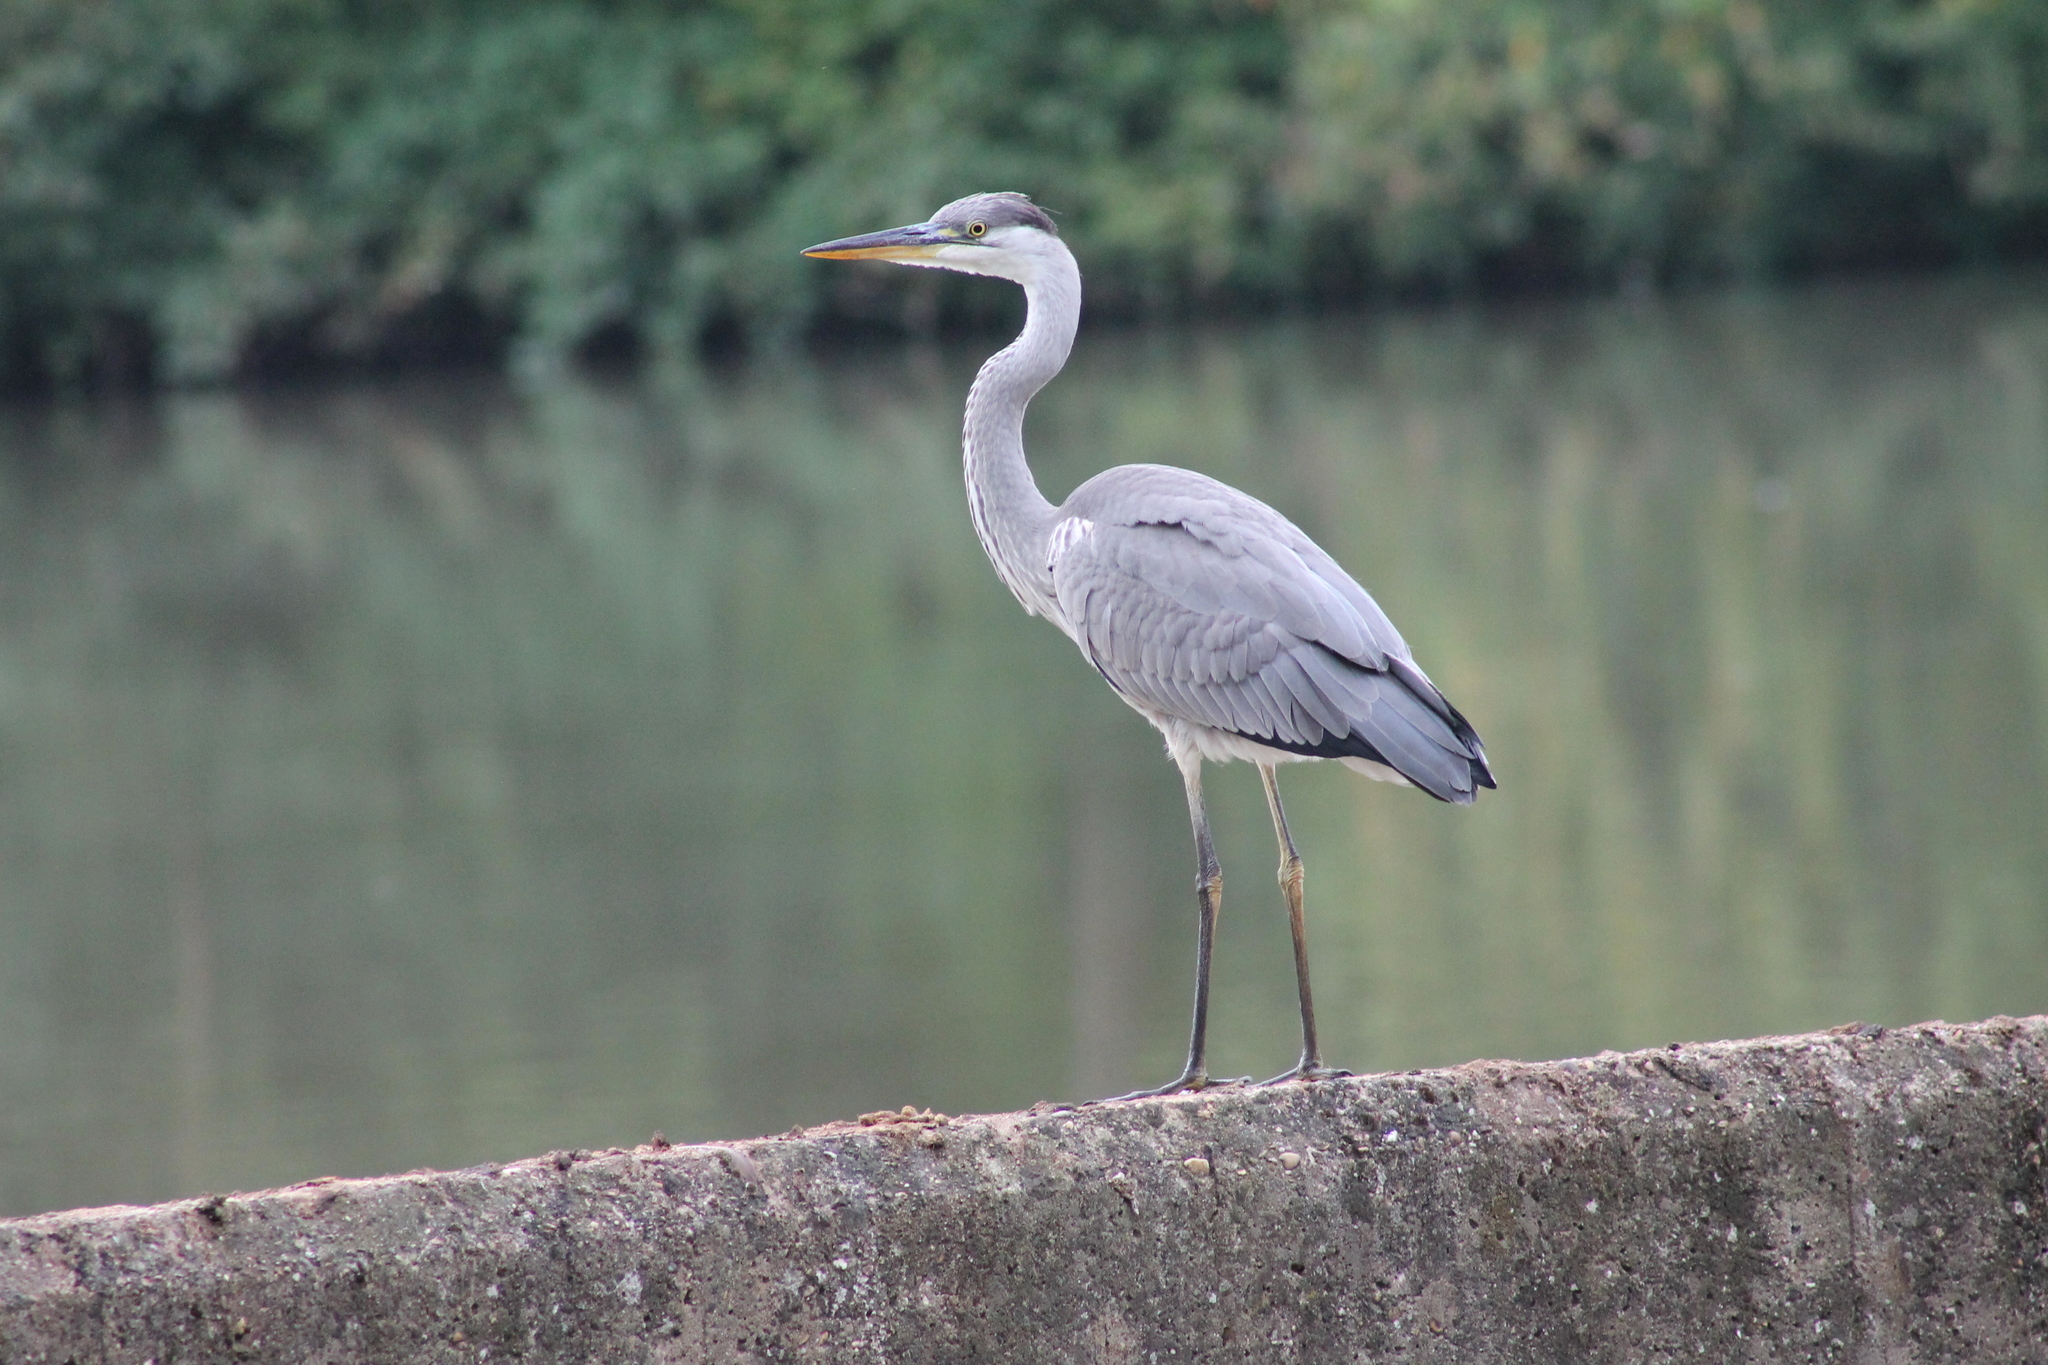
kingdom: Animalia
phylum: Chordata
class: Aves
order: Pelecaniformes
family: Ardeidae
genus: Ardea
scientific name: Ardea cinerea
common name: Grey heron
